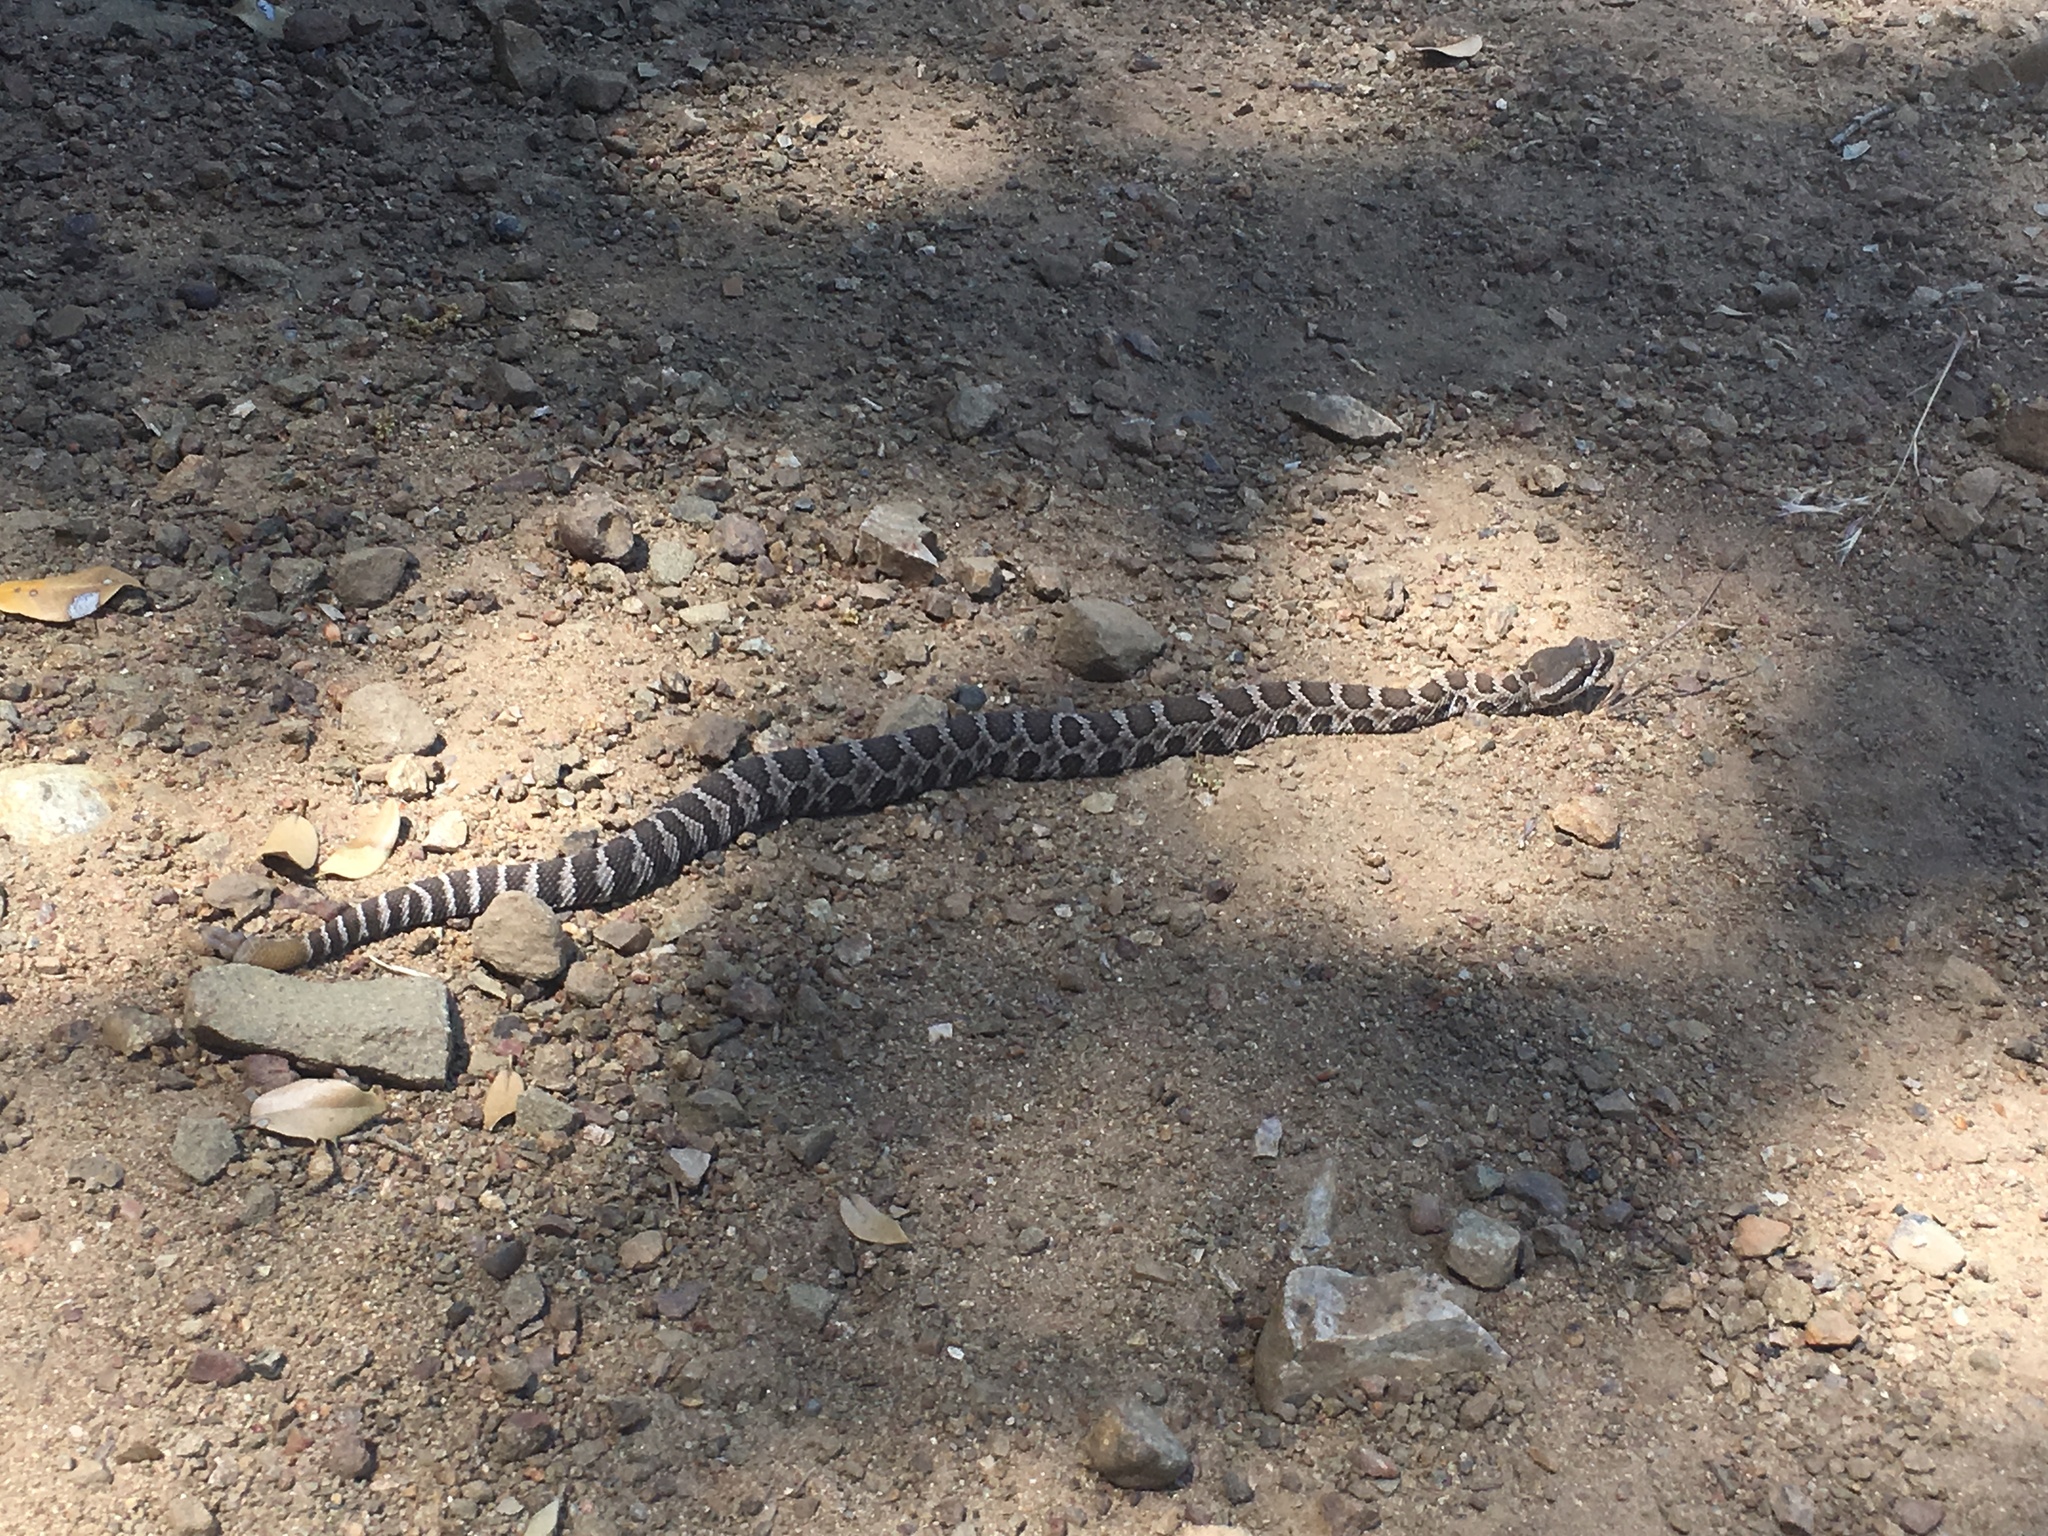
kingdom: Animalia
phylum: Chordata
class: Squamata
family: Viperidae
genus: Crotalus
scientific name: Crotalus oreganus
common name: Abyssus
